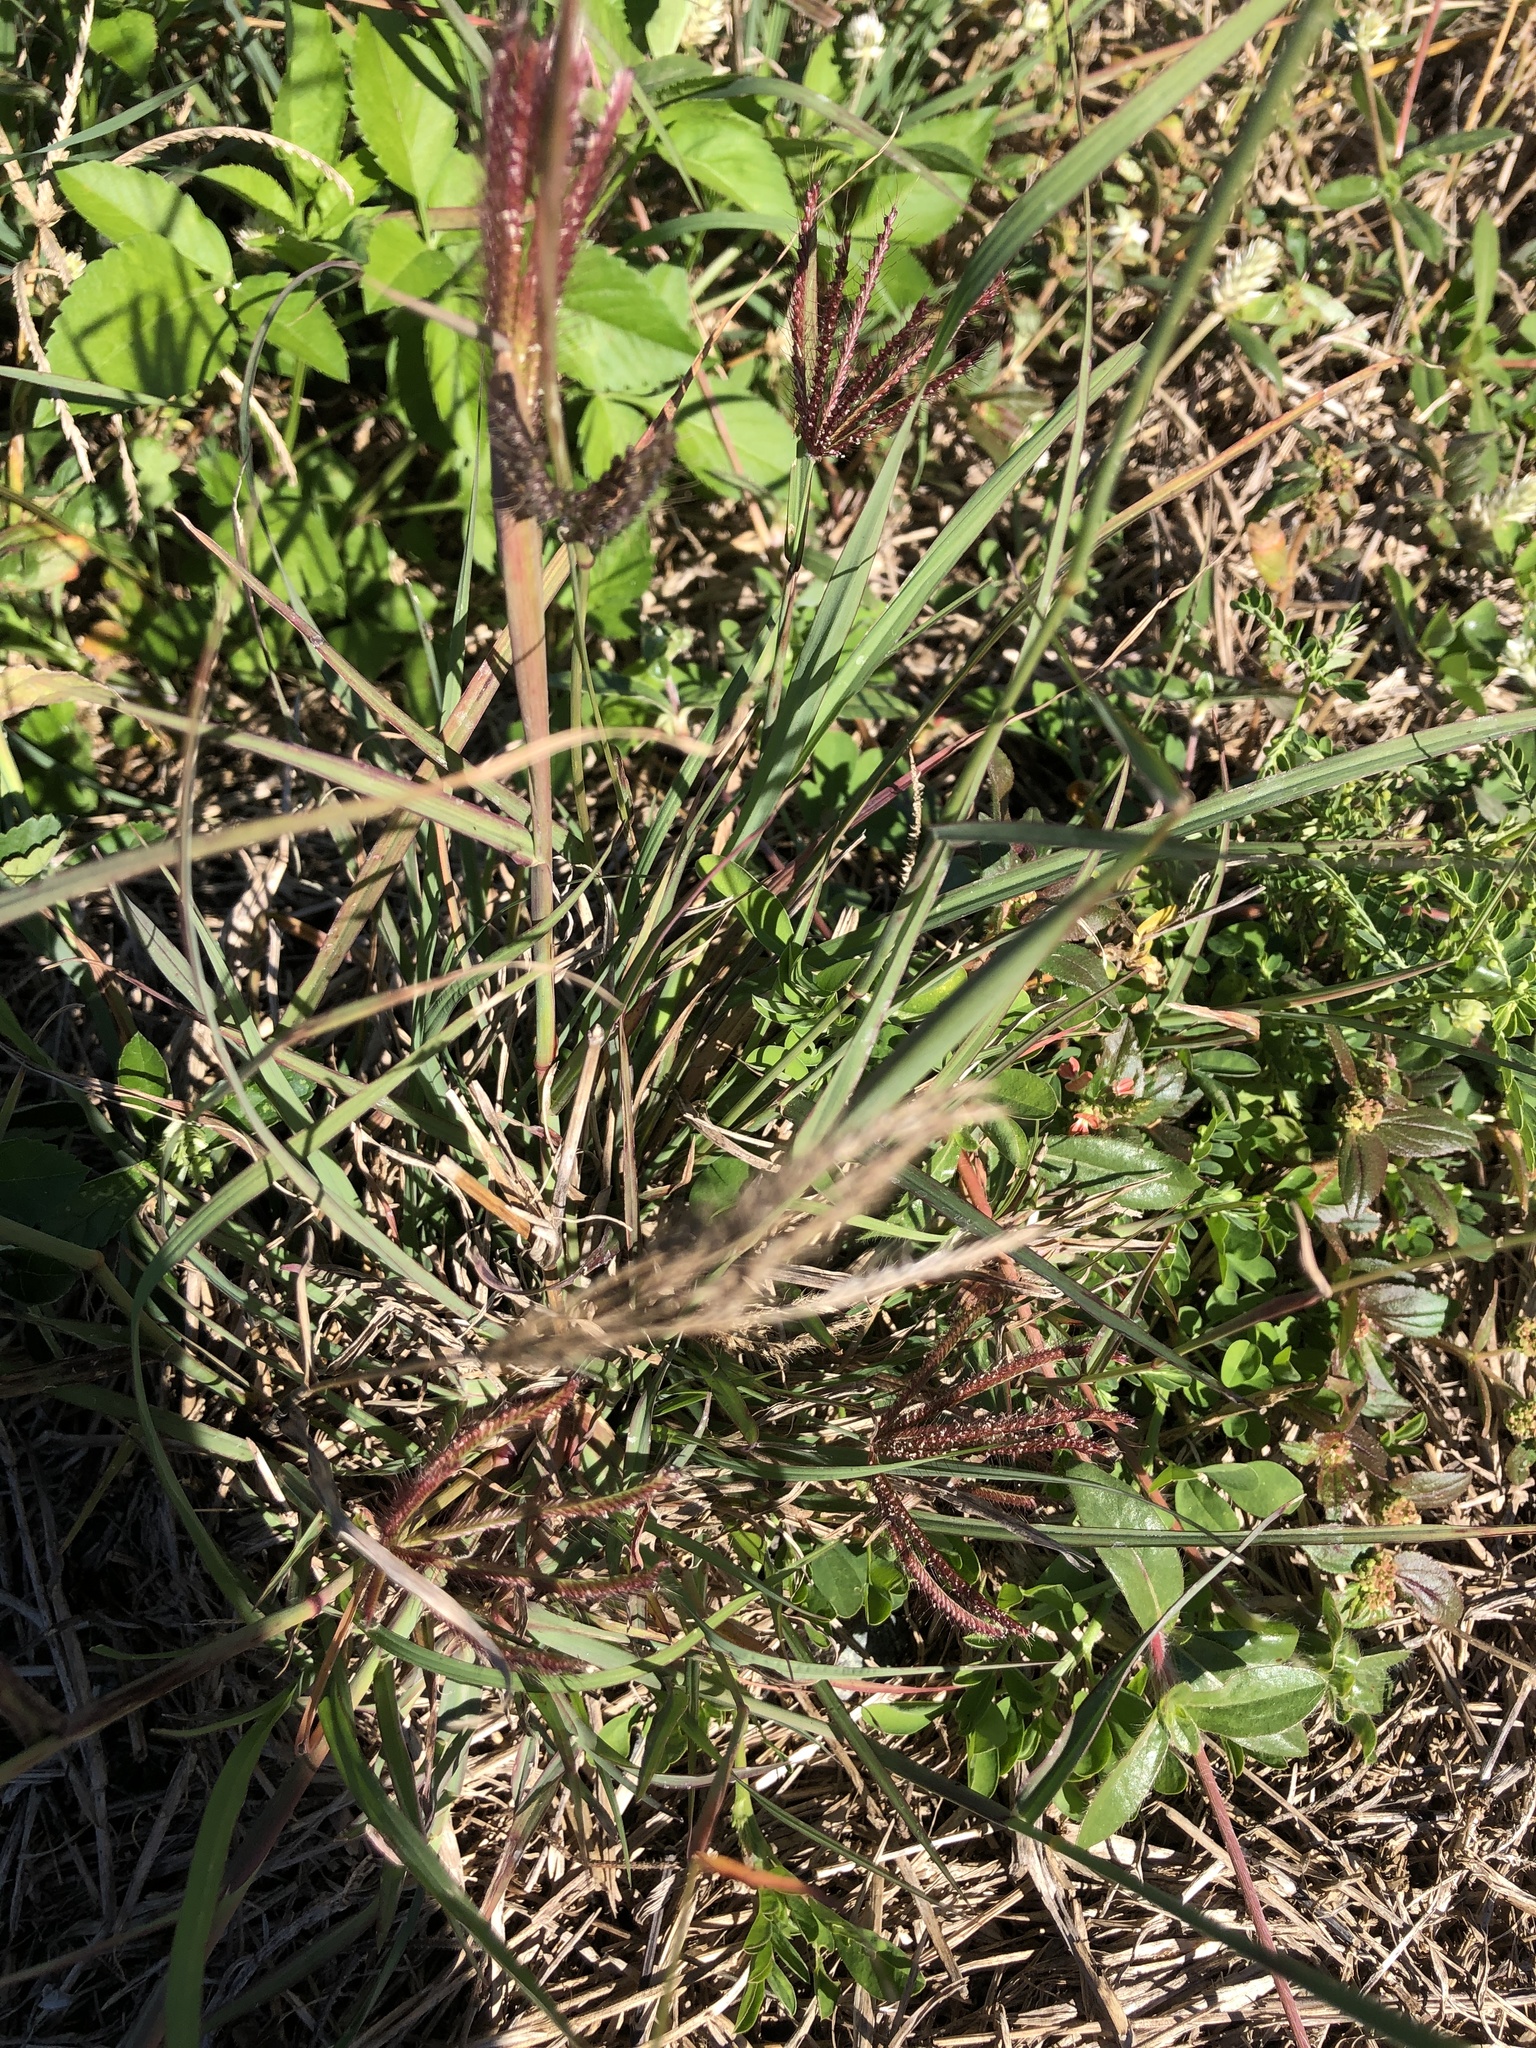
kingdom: Plantae
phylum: Tracheophyta
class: Liliopsida
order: Poales
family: Poaceae
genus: Chloris
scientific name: Chloris barbata
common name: Swollen fingergrass
